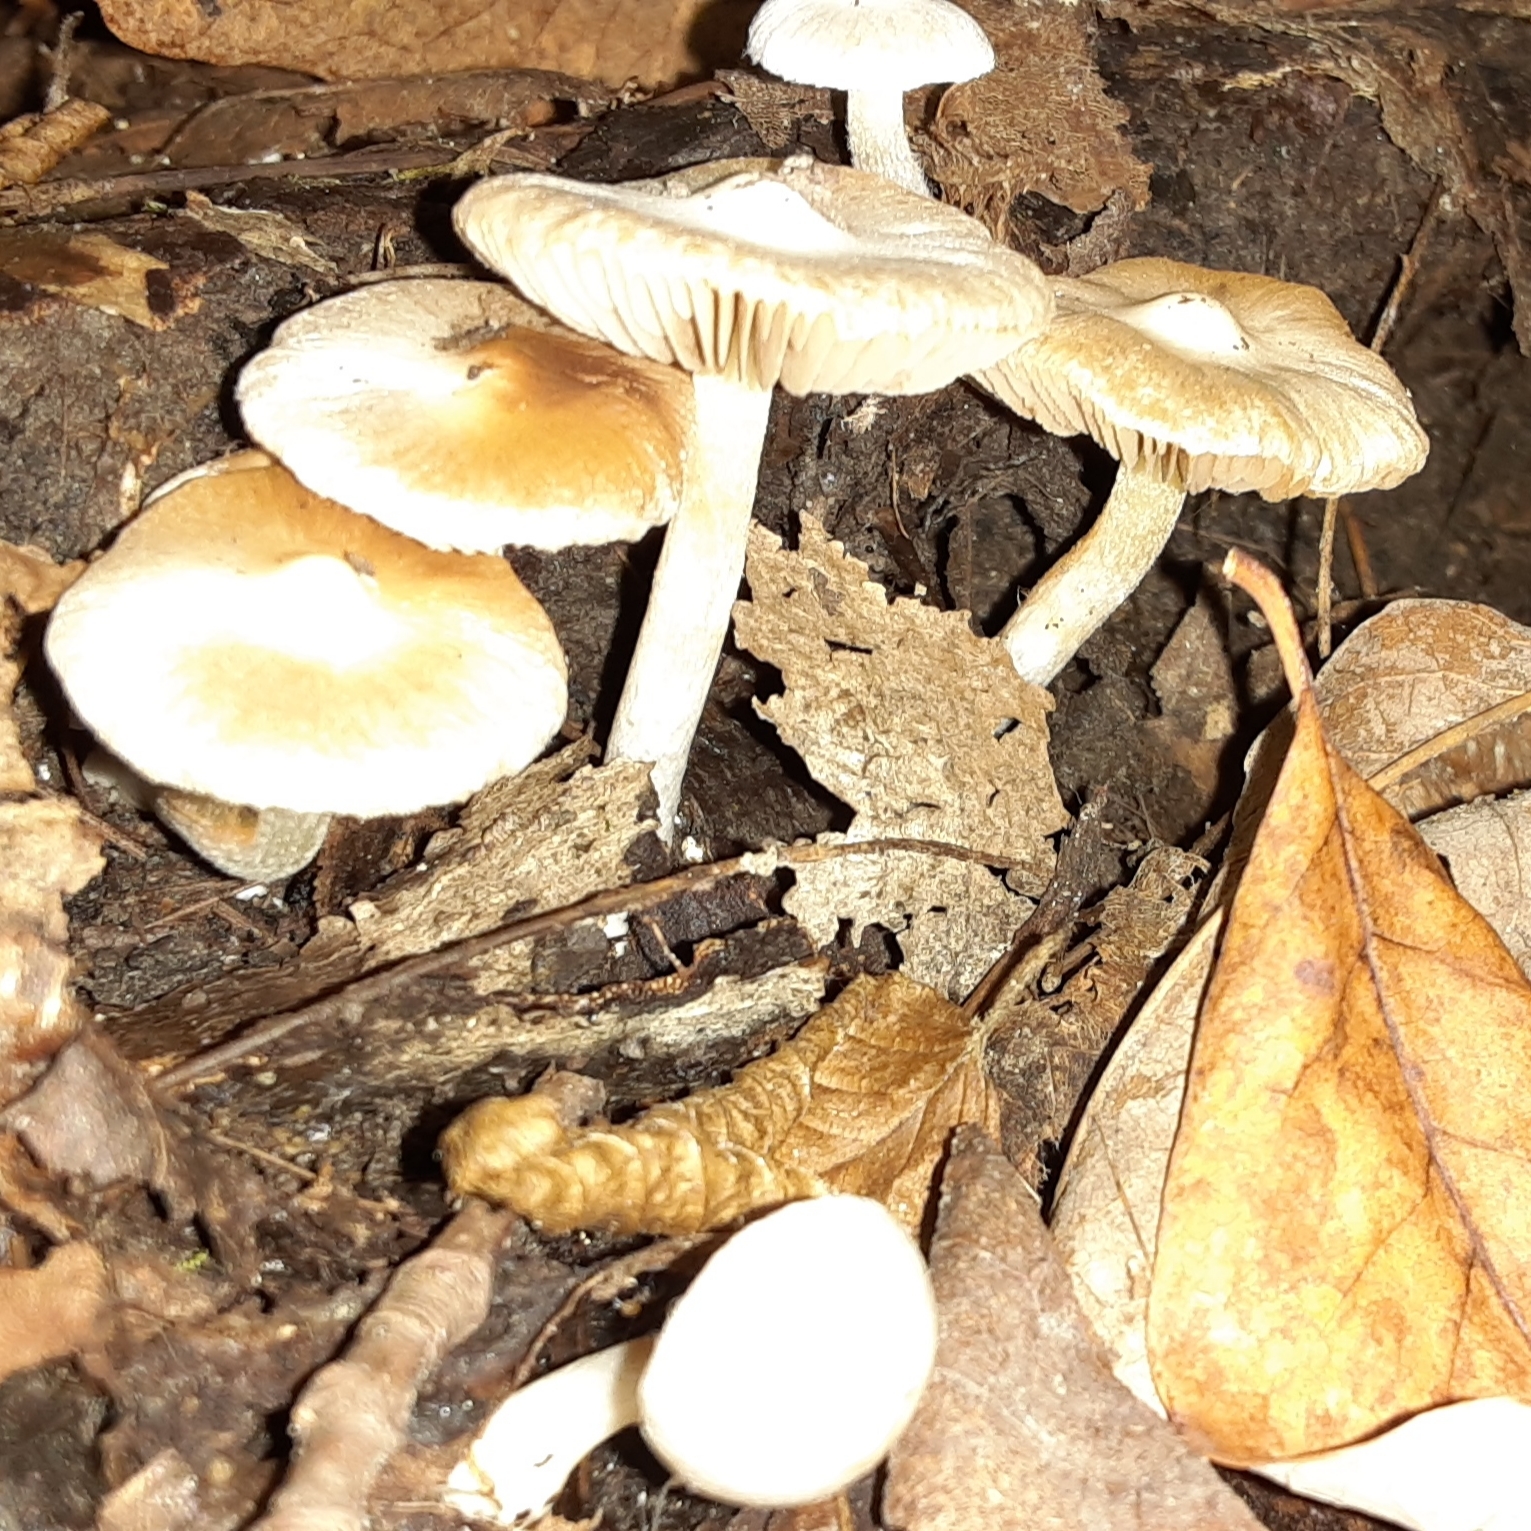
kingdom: Fungi
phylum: Basidiomycota
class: Agaricomycetes
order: Agaricales
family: Inocybaceae
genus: Inocybe
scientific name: Inocybe geophylla
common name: White fibrecap
